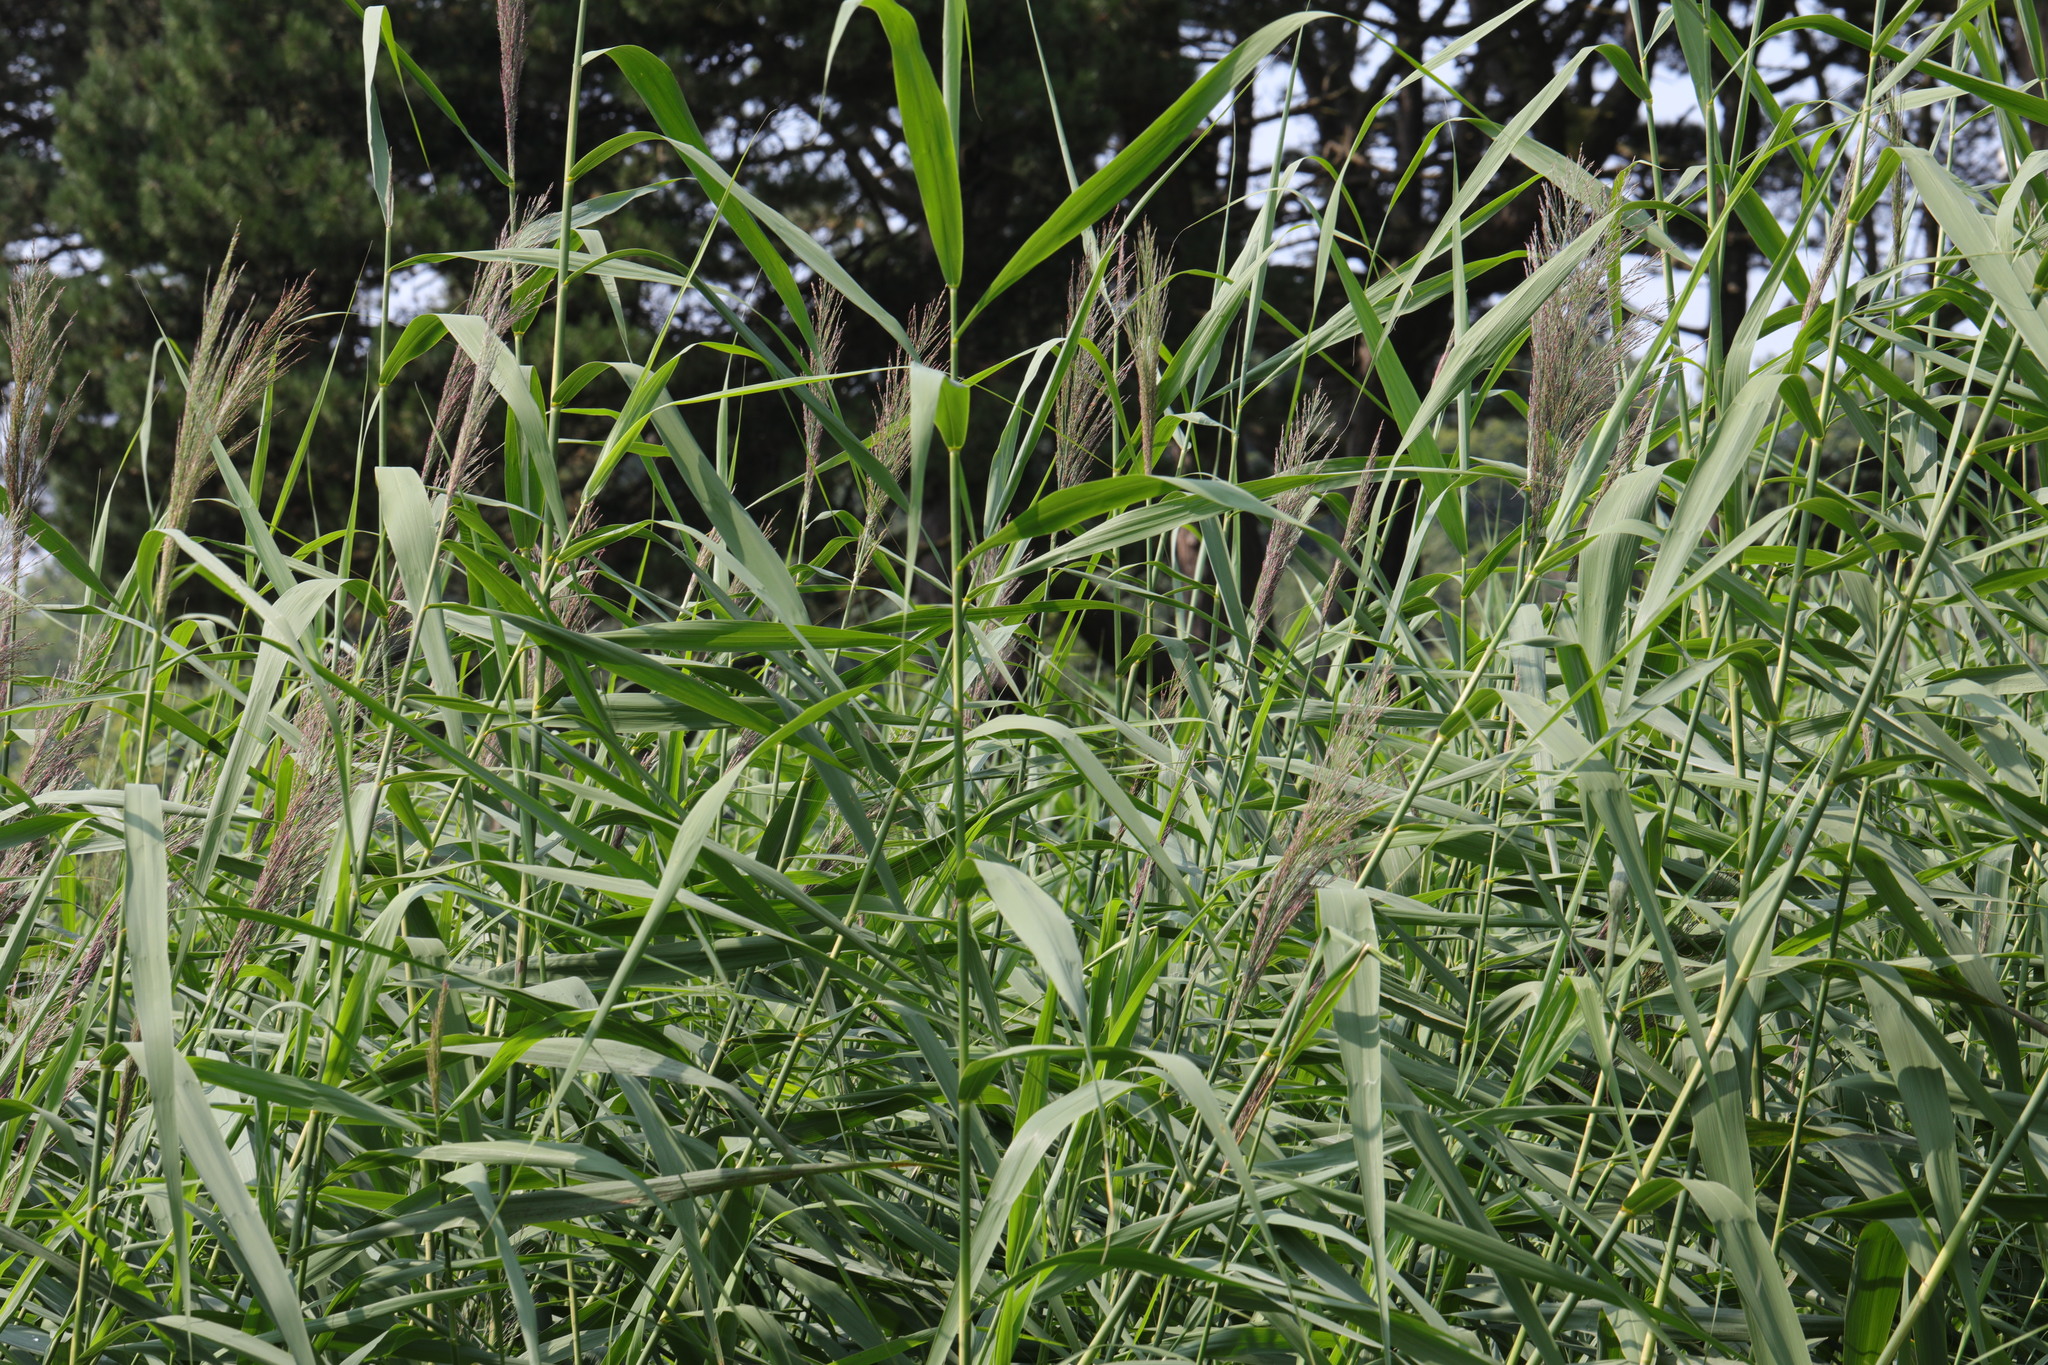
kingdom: Plantae
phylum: Tracheophyta
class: Liliopsida
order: Poales
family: Poaceae
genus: Phragmites
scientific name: Phragmites australis
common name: Common reed
